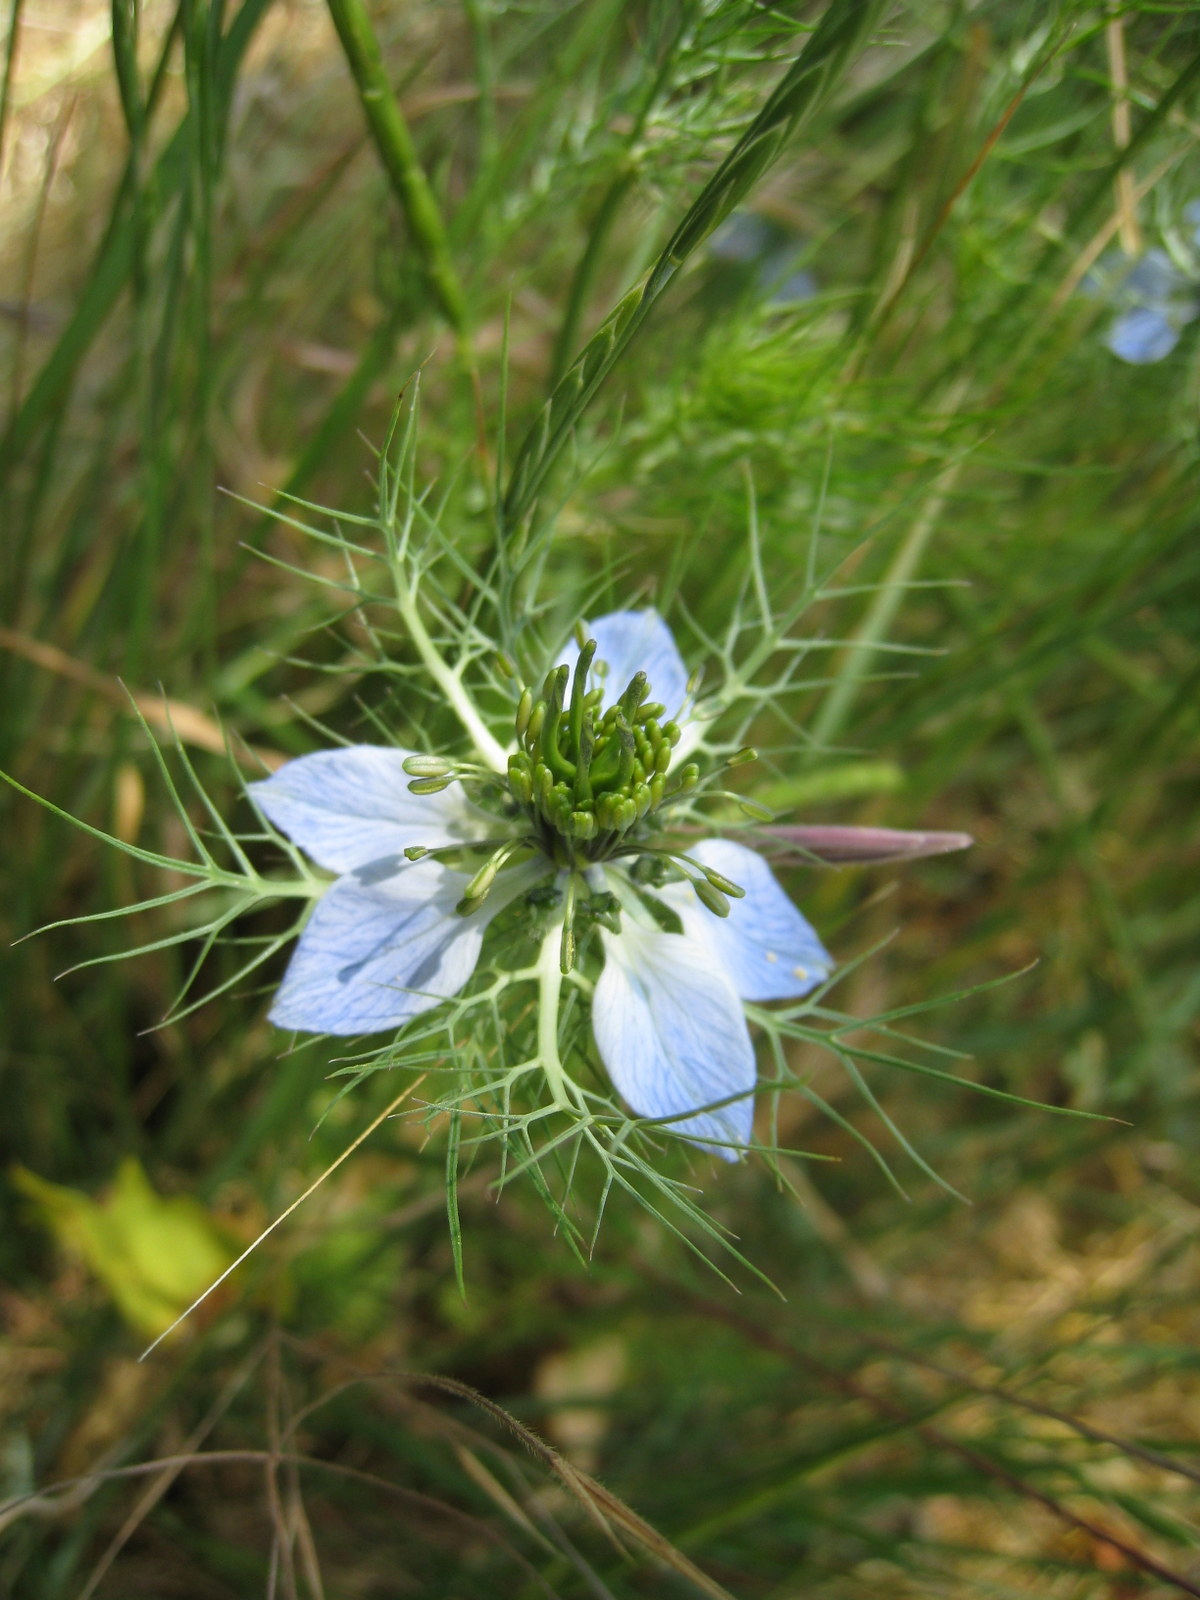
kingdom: Plantae
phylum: Tracheophyta
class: Magnoliopsida
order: Ranunculales
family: Ranunculaceae
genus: Nigella
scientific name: Nigella damascena
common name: Love-in-a-mist
